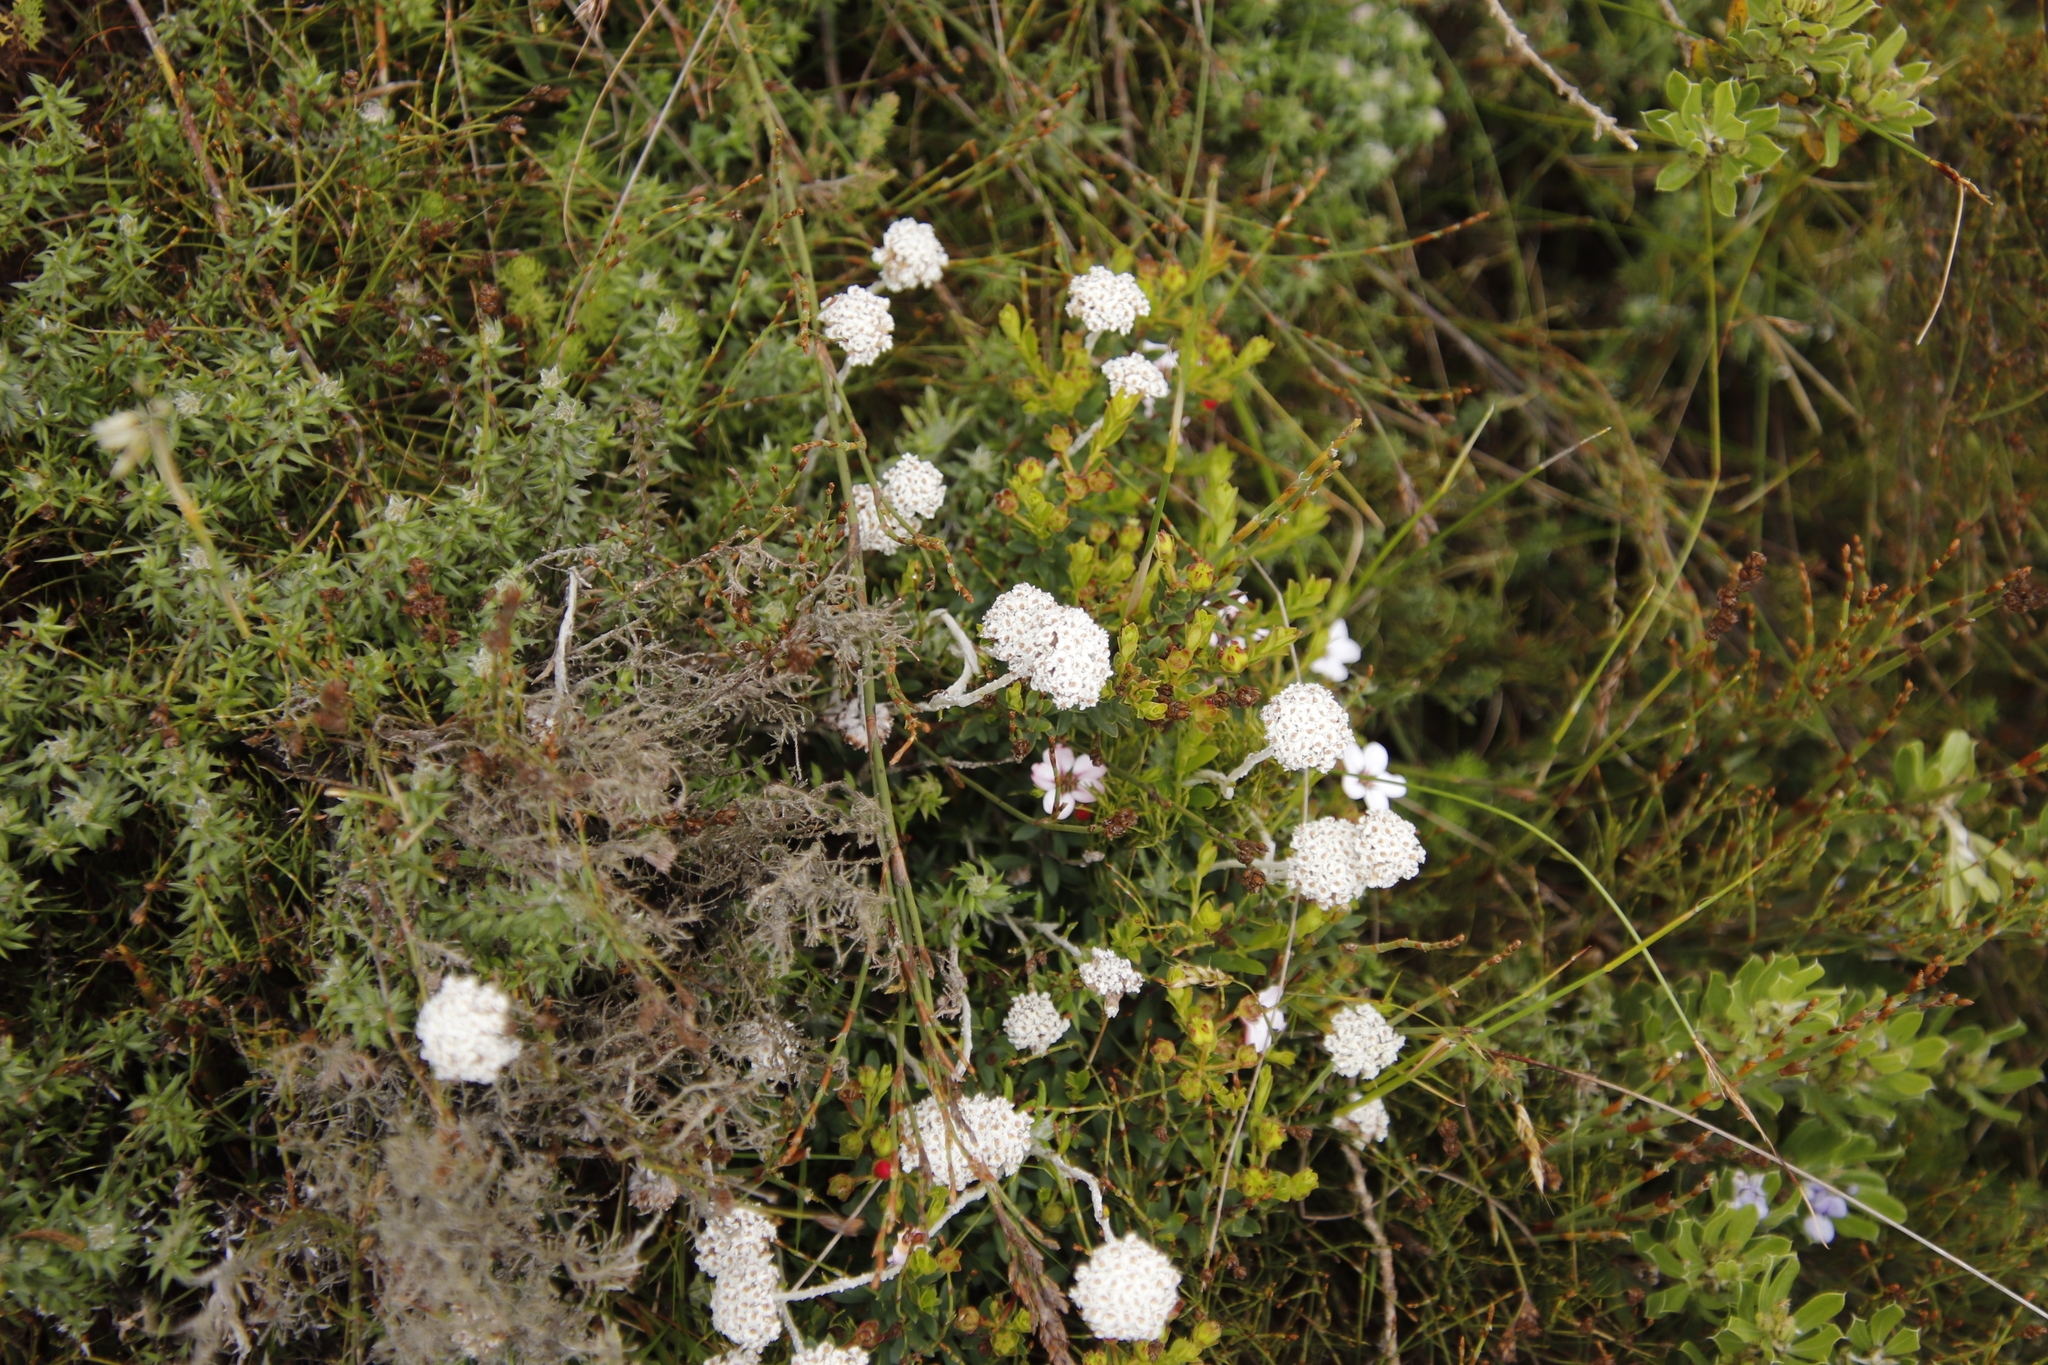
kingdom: Plantae
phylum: Tracheophyta
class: Magnoliopsida
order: Asterales
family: Asteraceae
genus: Anaxeton
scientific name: Anaxeton asperum
